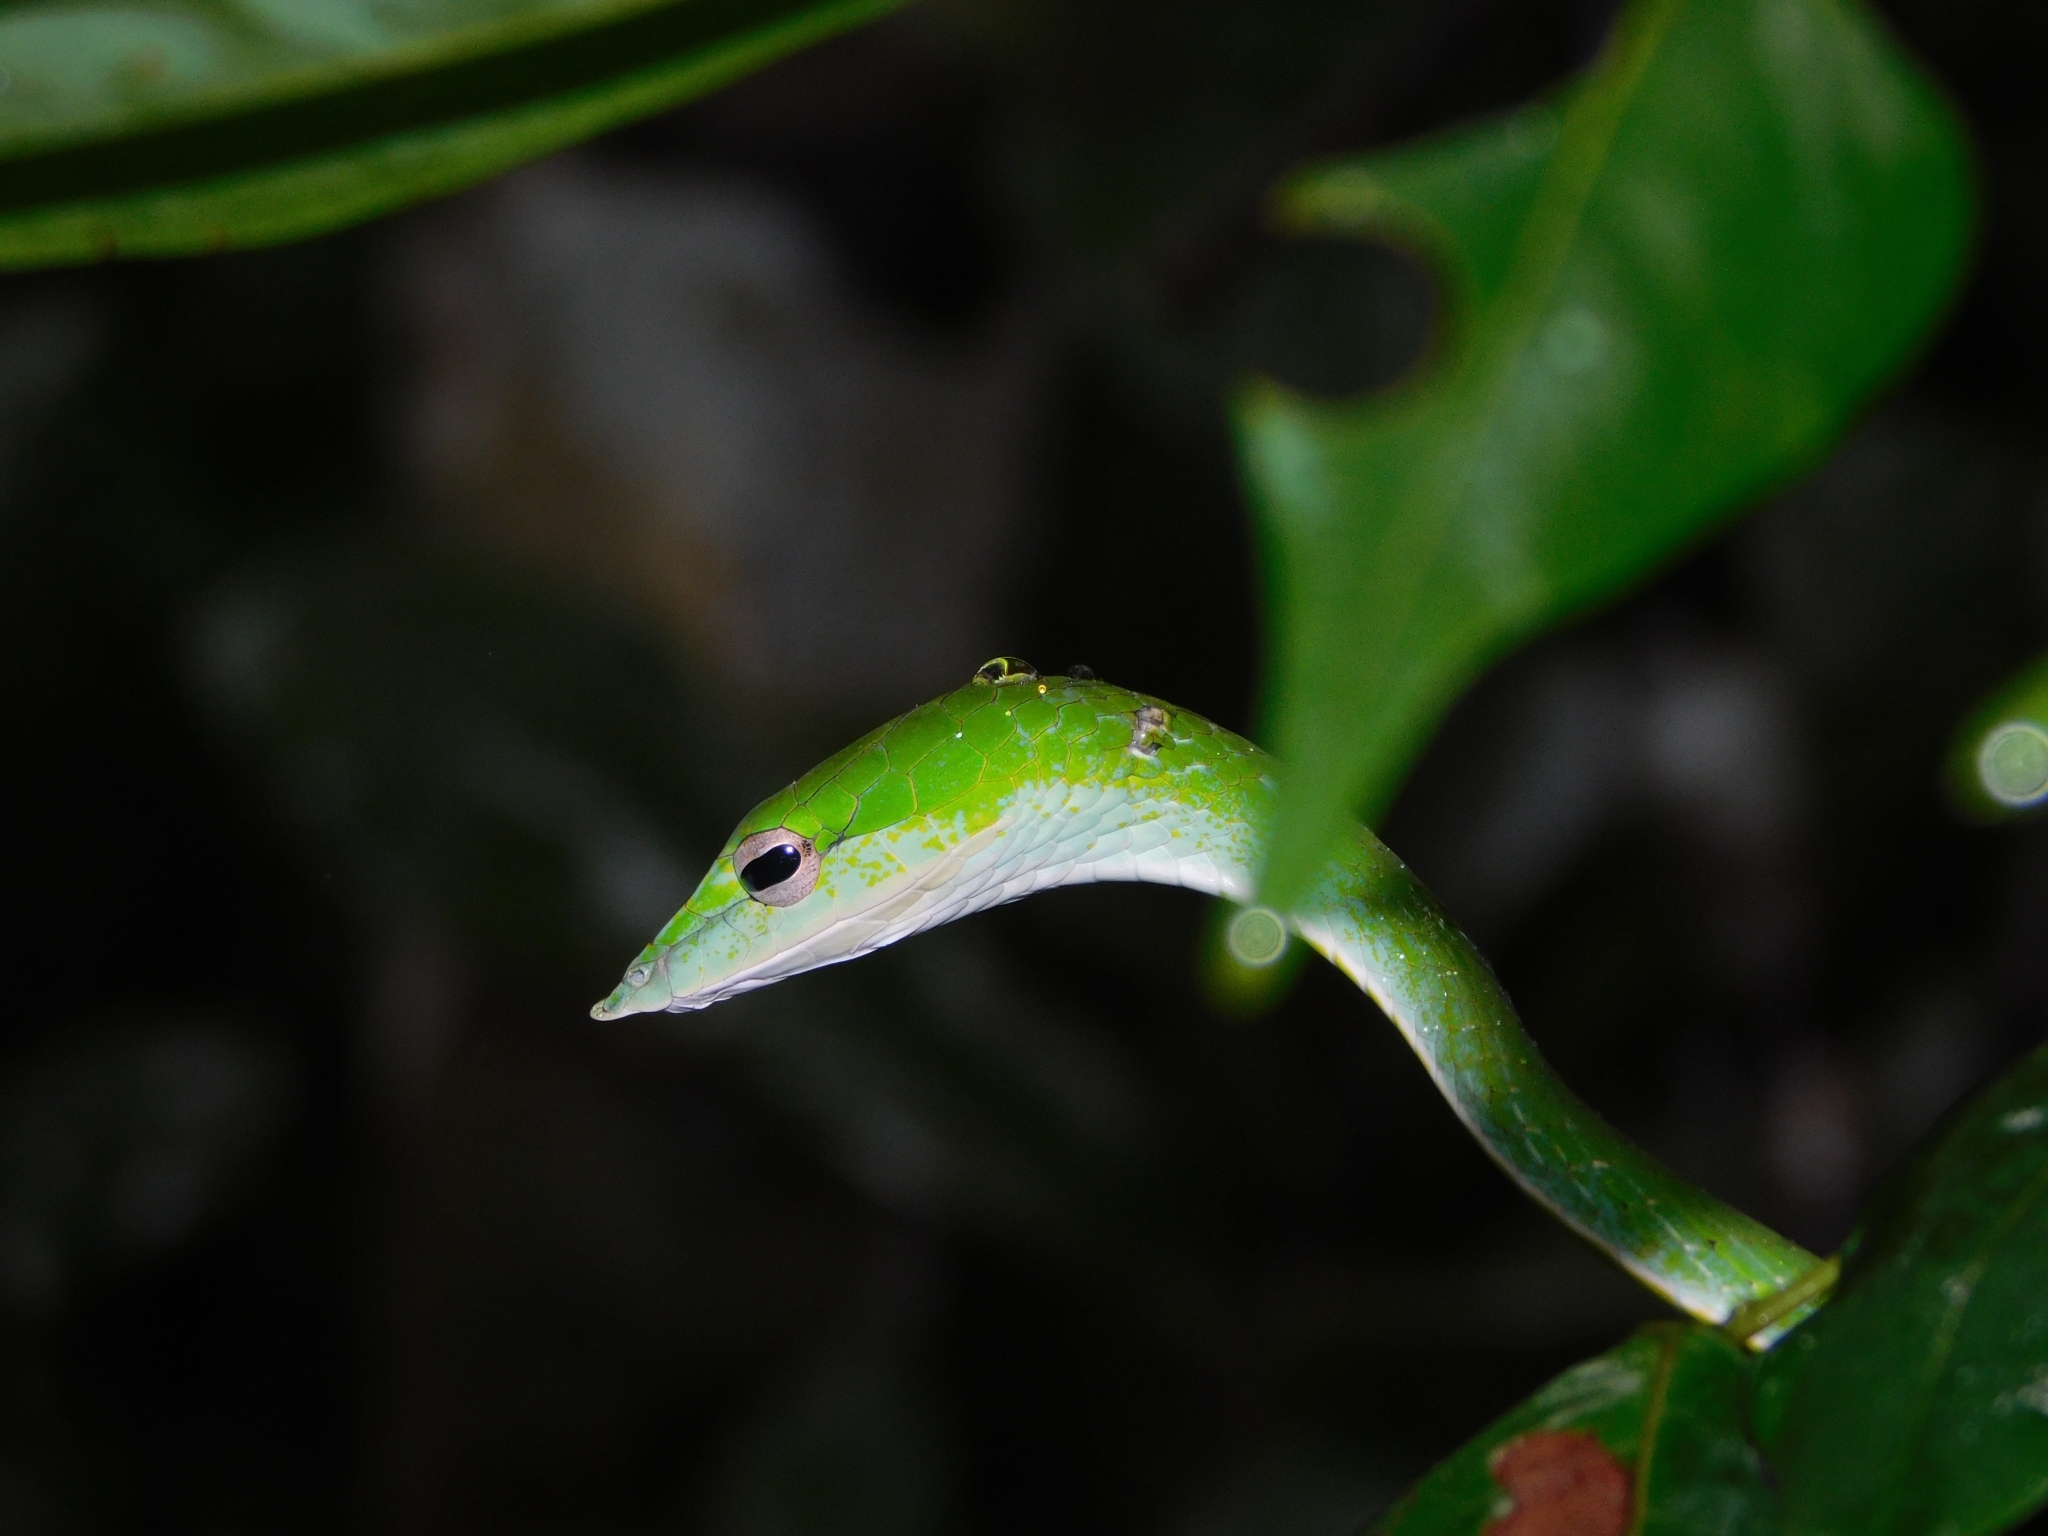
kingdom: Animalia
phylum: Chordata
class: Squamata
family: Colubridae
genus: Ahaetulla
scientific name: Ahaetulla farnsworthi
